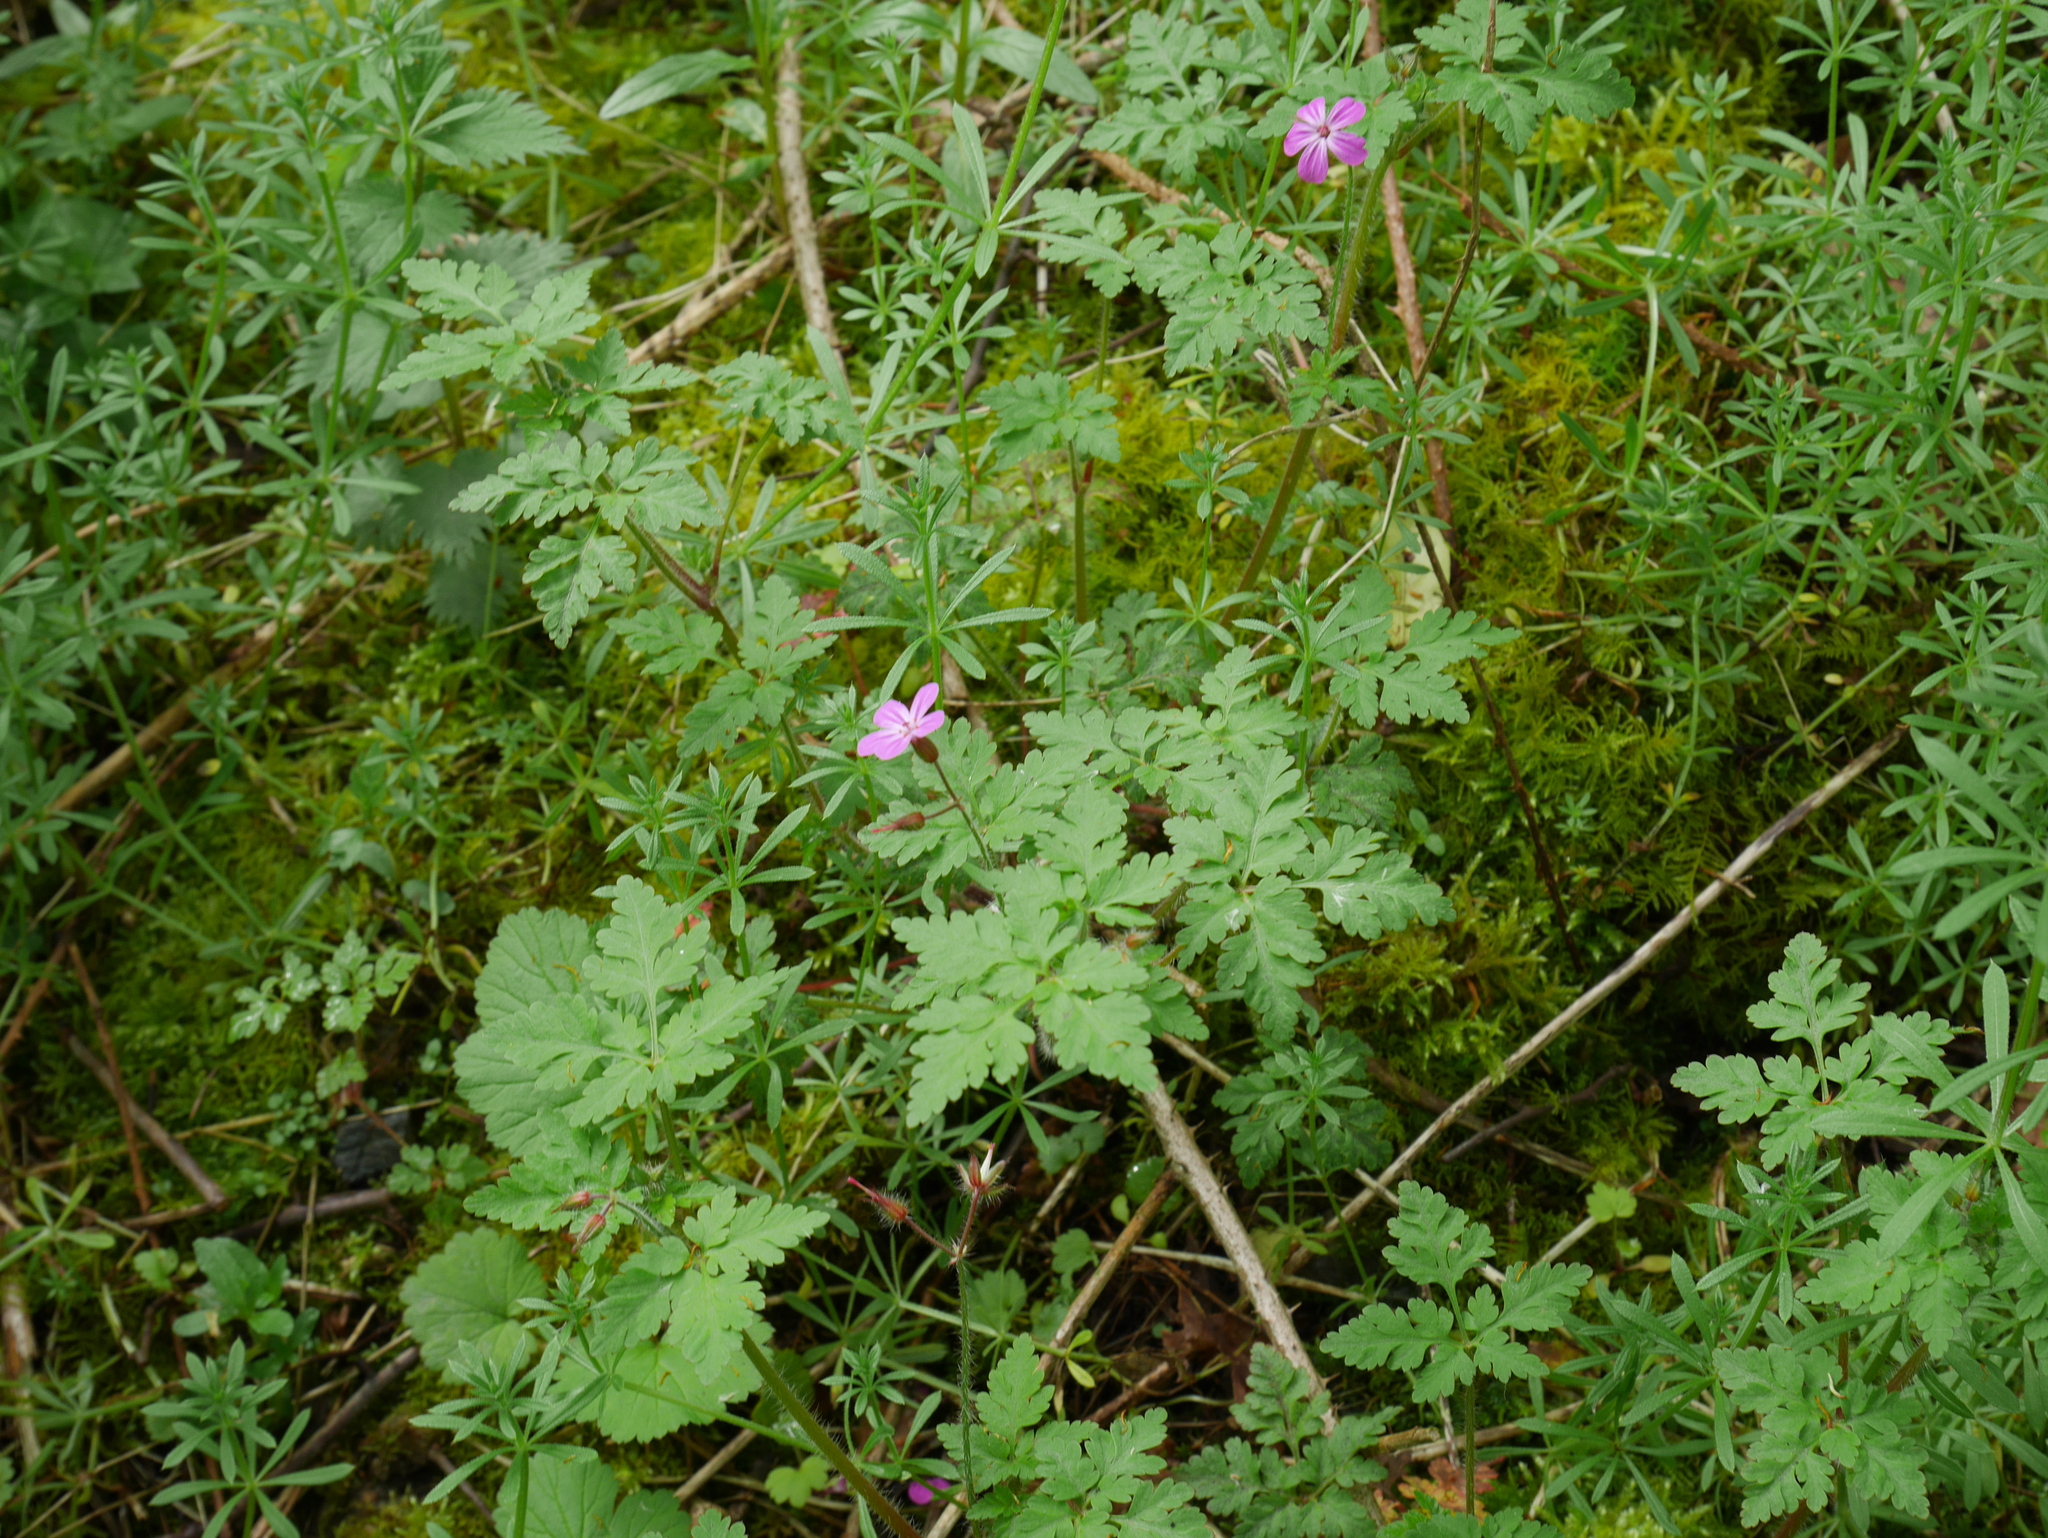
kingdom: Plantae
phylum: Tracheophyta
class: Magnoliopsida
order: Geraniales
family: Geraniaceae
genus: Geranium
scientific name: Geranium robertianum
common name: Herb-robert
